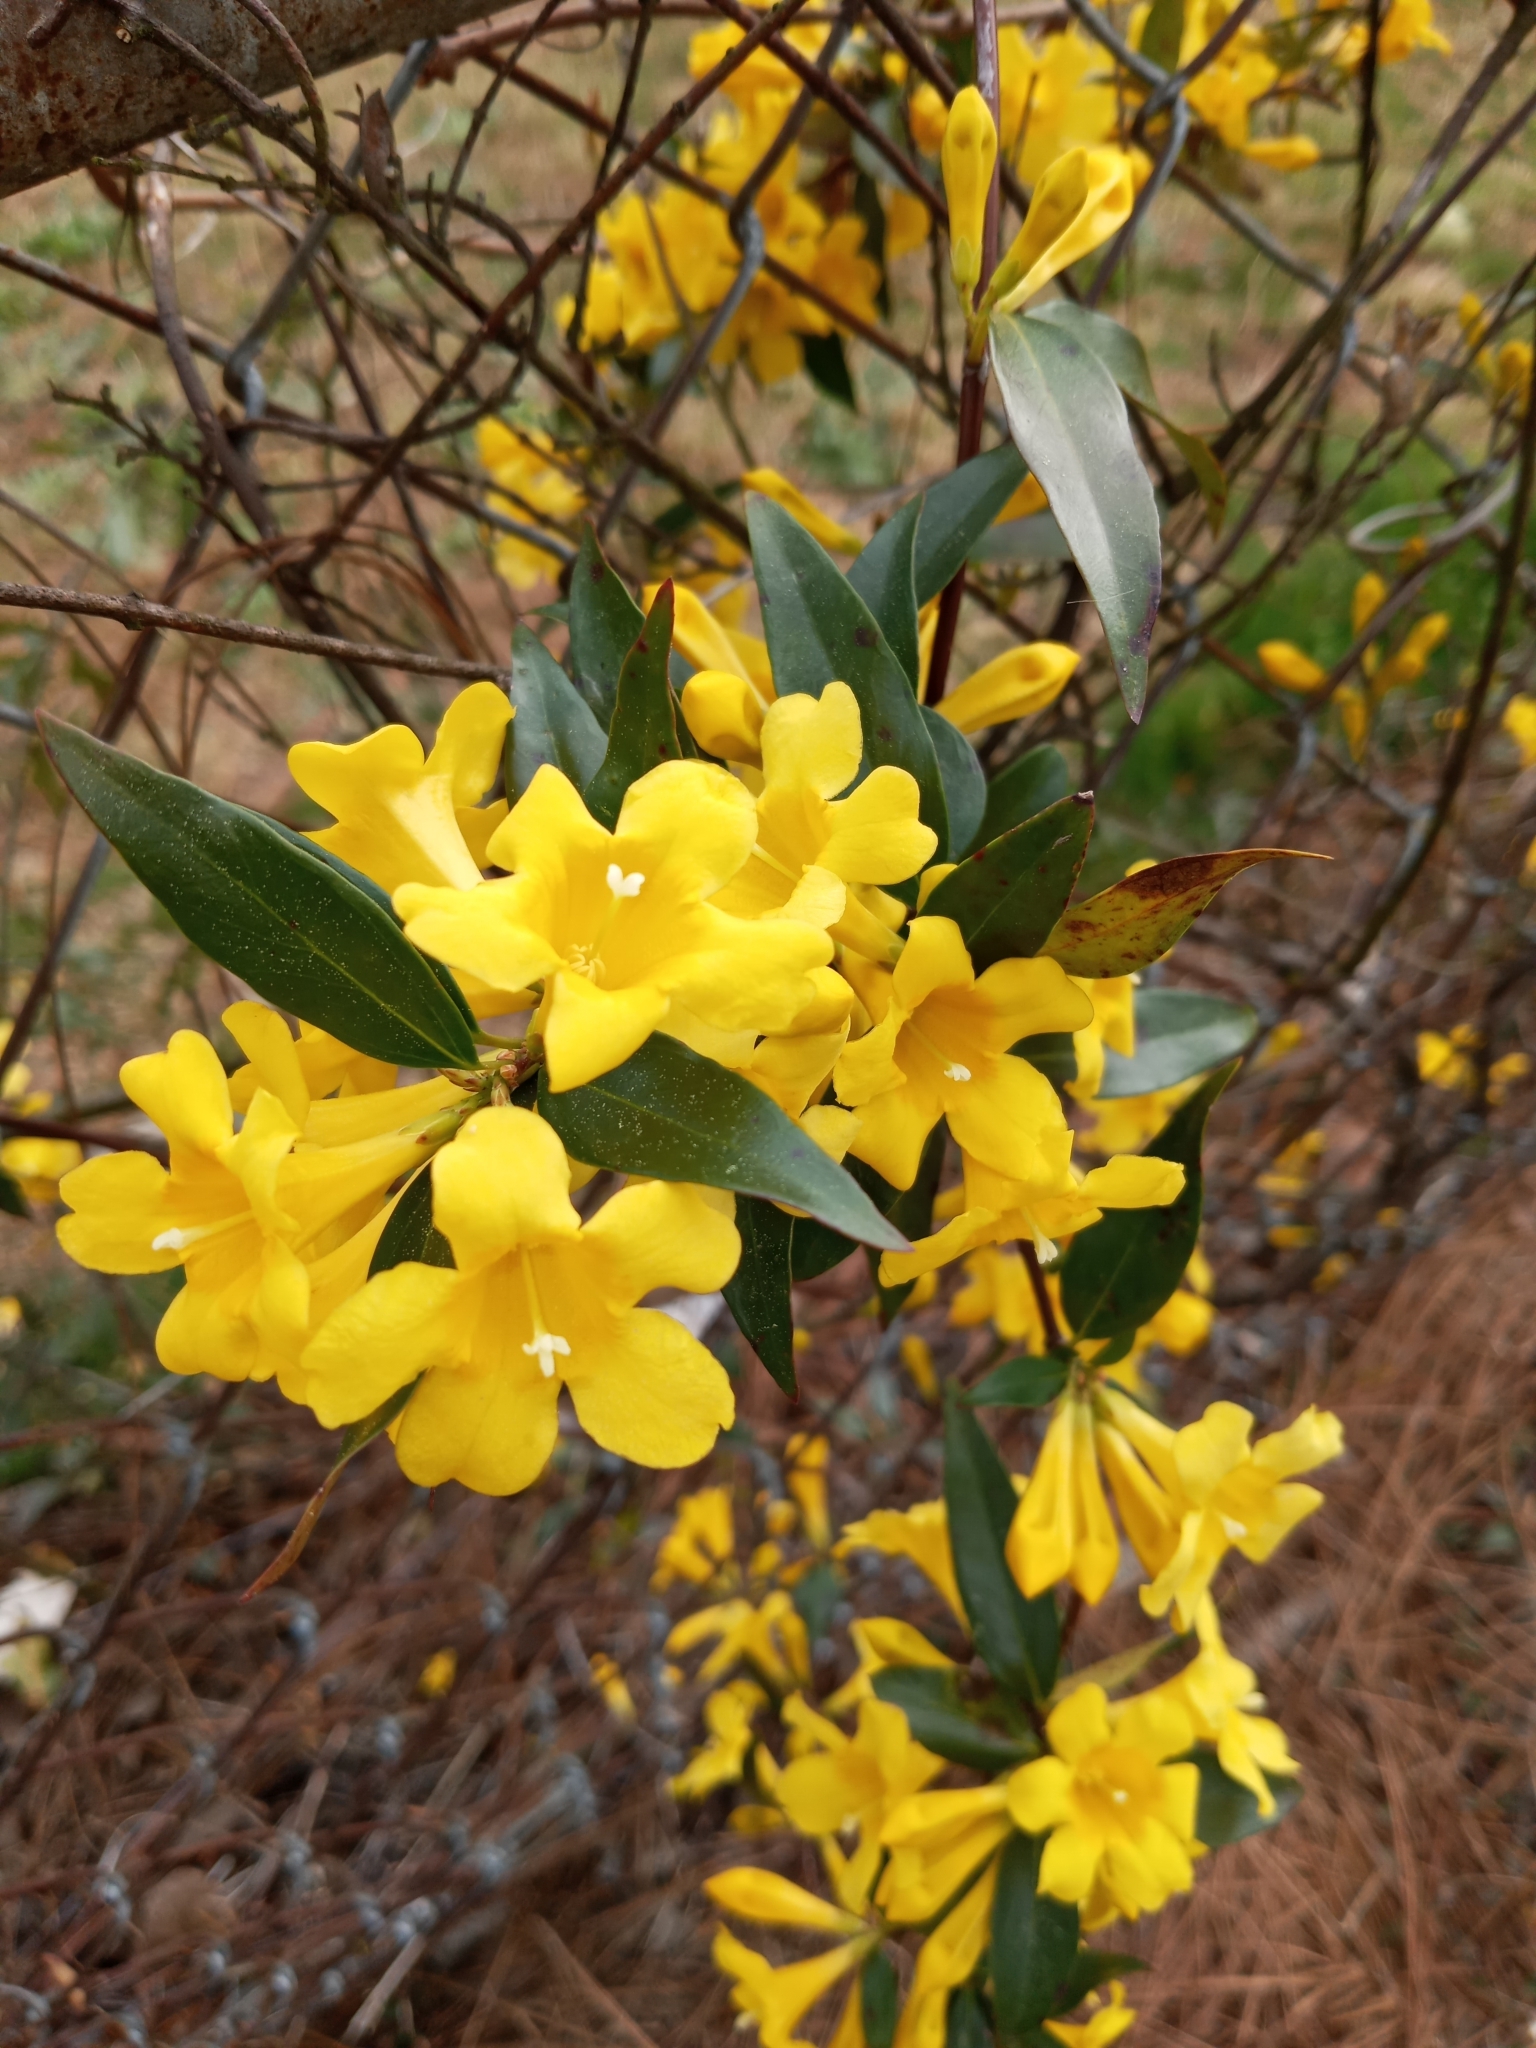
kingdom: Plantae
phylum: Tracheophyta
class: Magnoliopsida
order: Gentianales
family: Gelsemiaceae
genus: Gelsemium
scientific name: Gelsemium sempervirens
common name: Carolina-jasmine
